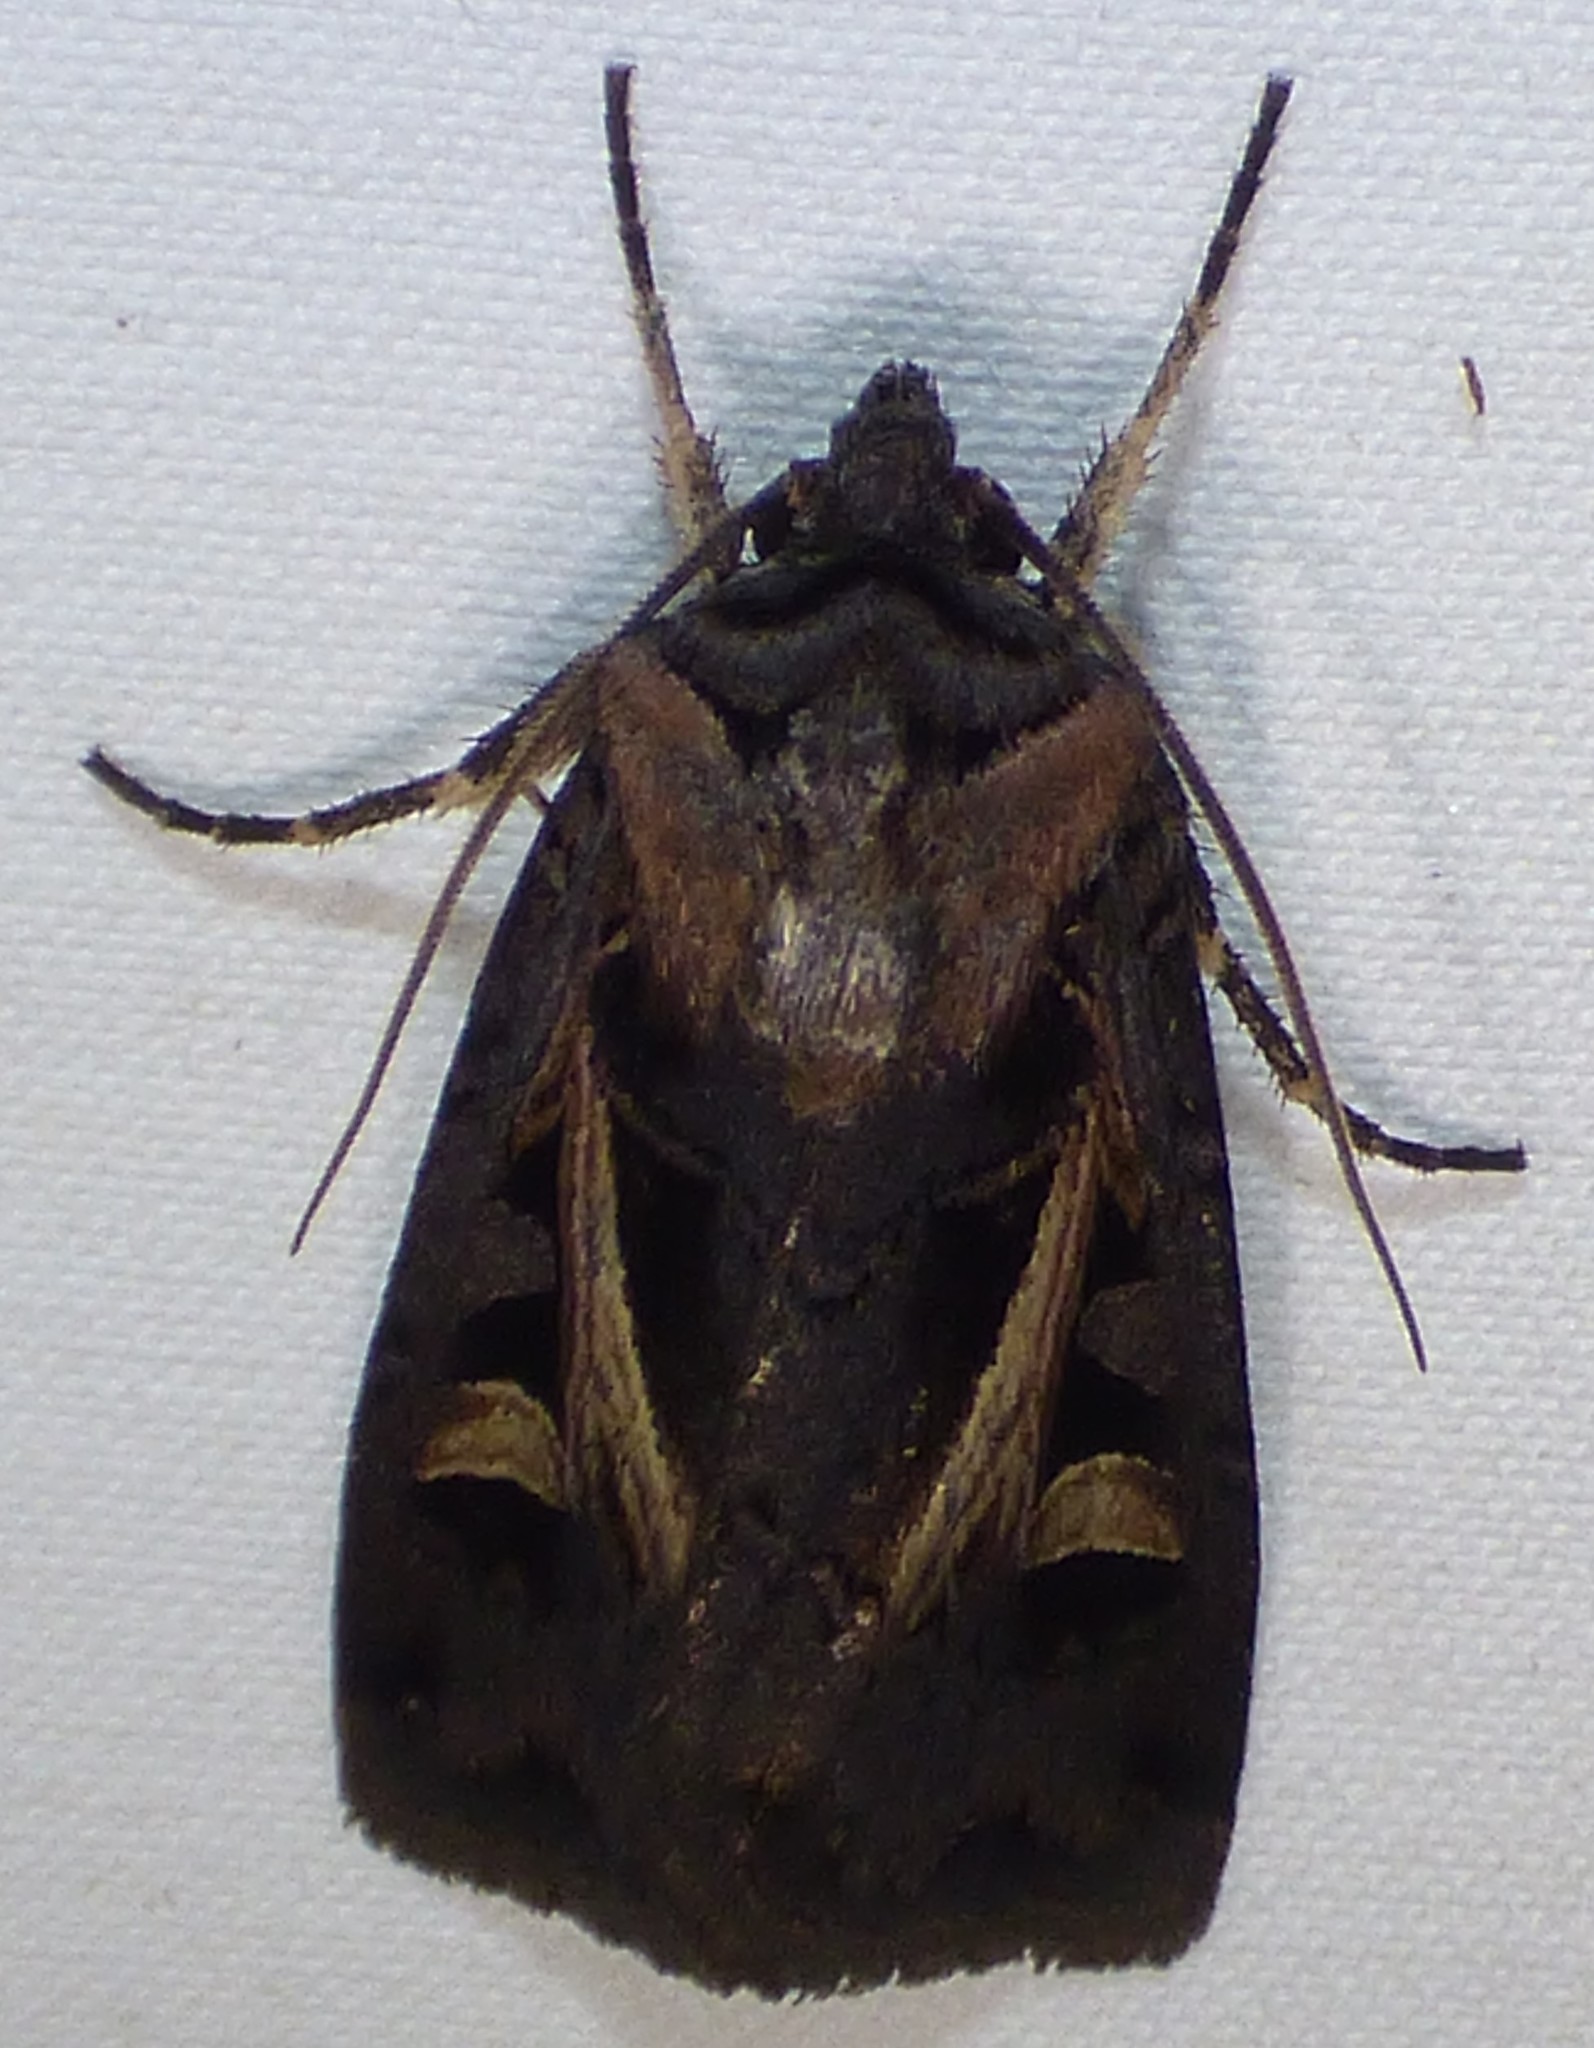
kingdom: Animalia
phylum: Arthropoda
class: Insecta
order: Lepidoptera
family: Noctuidae
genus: Feltia
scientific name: Feltia herilis
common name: Master's dart
